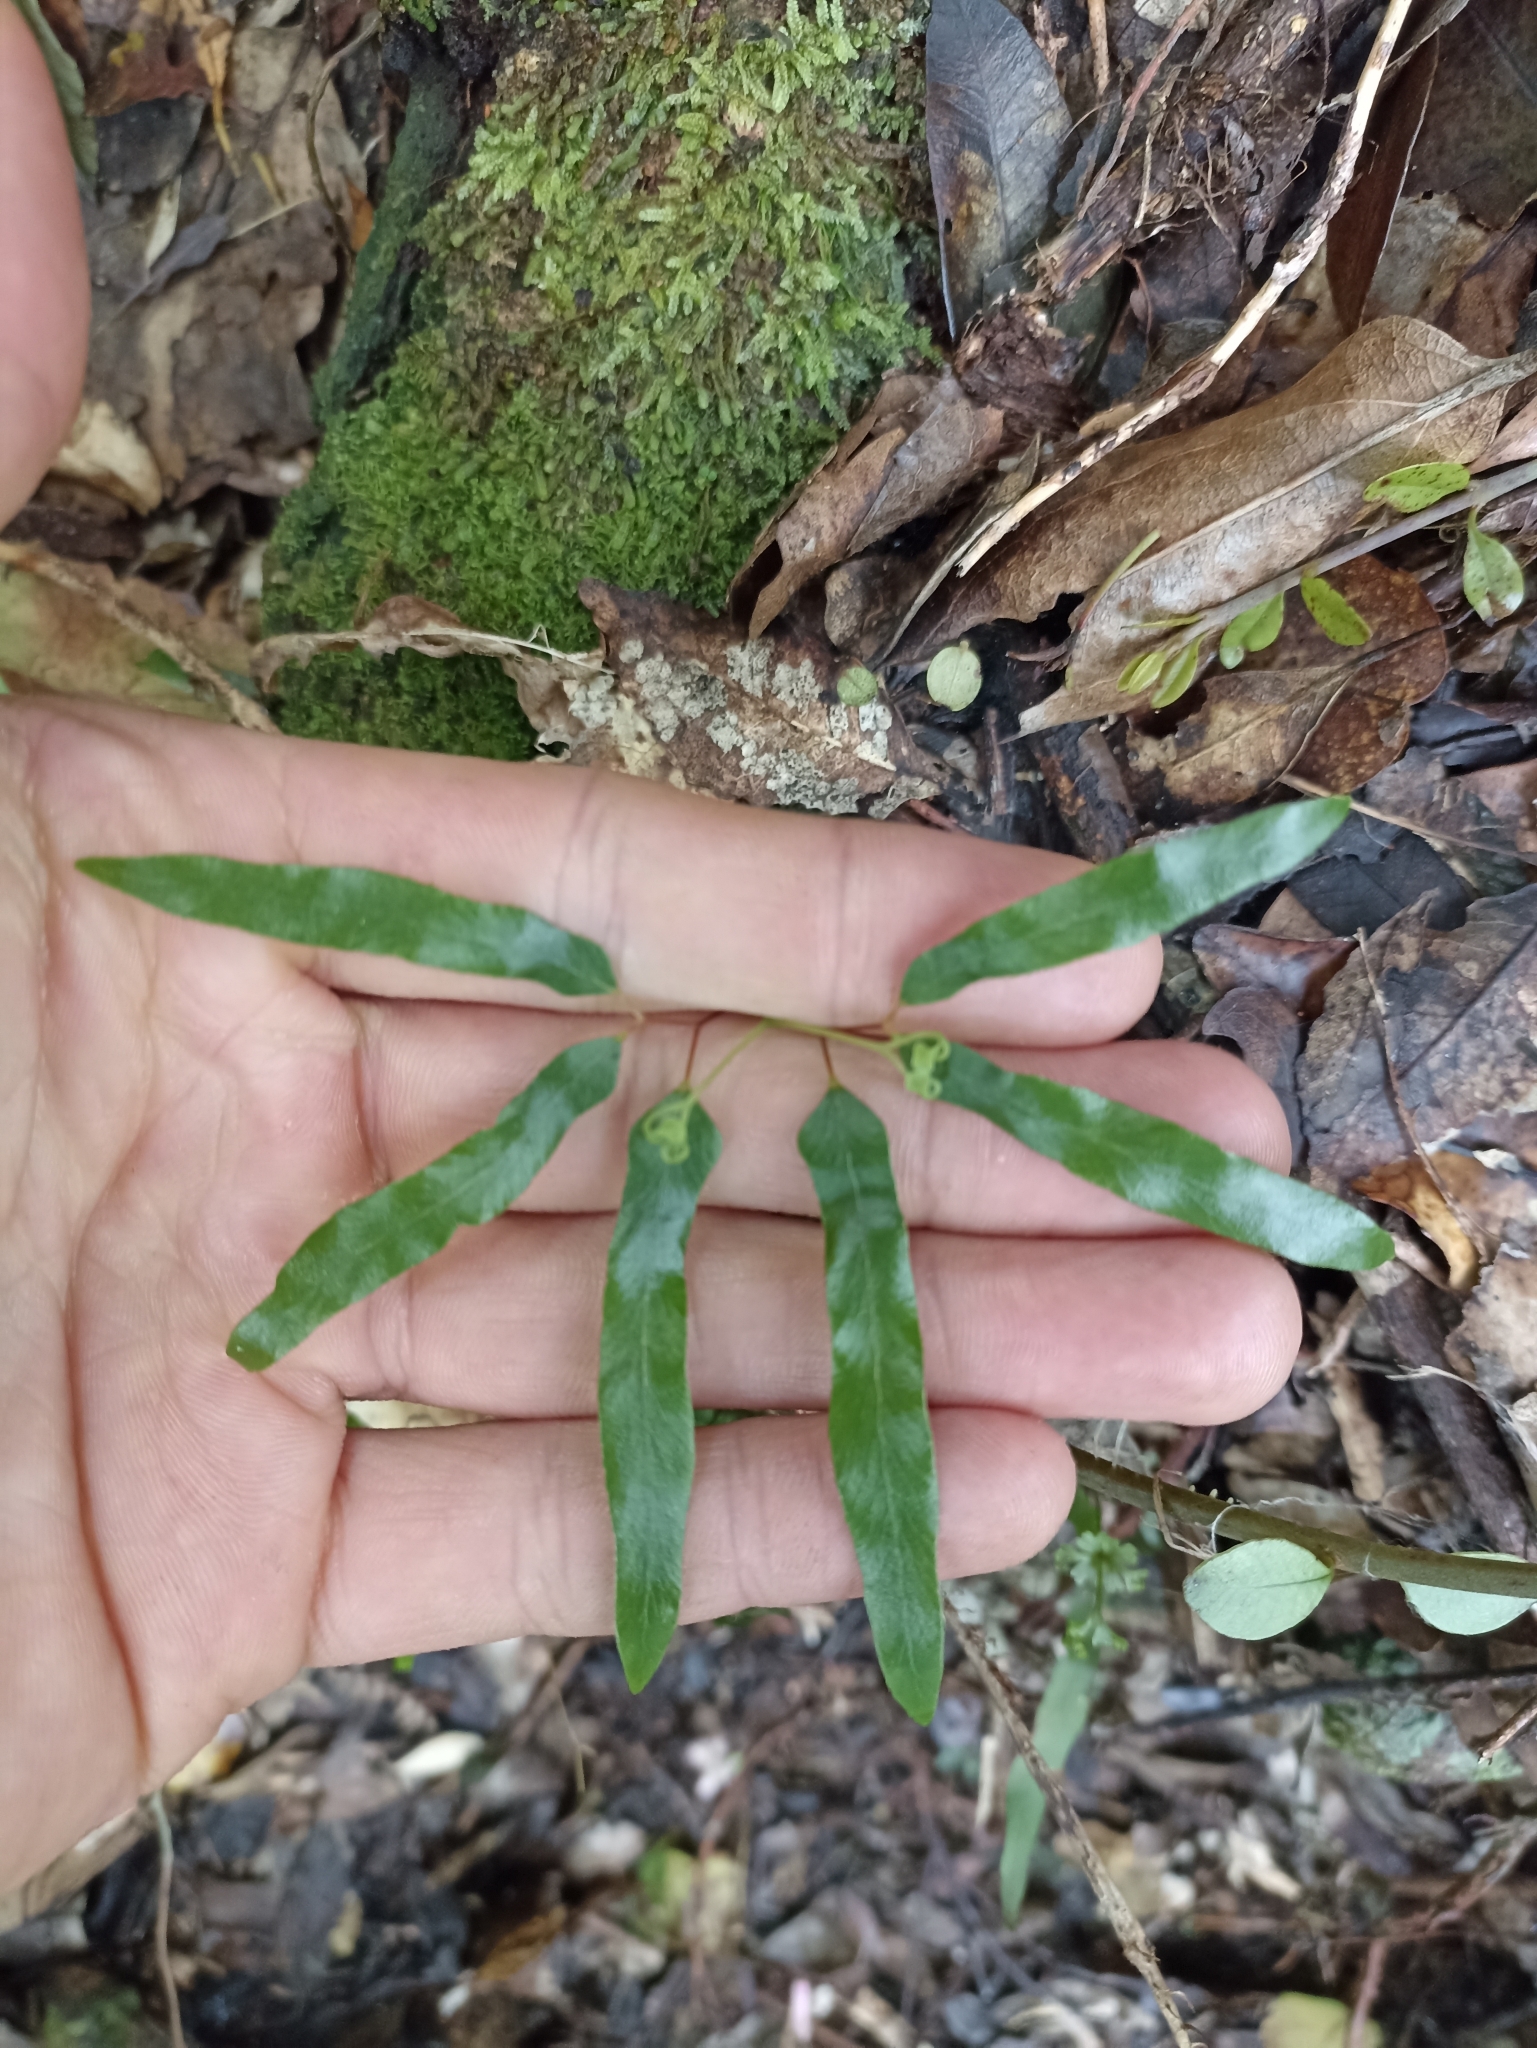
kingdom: Plantae
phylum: Tracheophyta
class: Polypodiopsida
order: Schizaeales
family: Lygodiaceae
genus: Lygodium
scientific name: Lygodium articulatum
